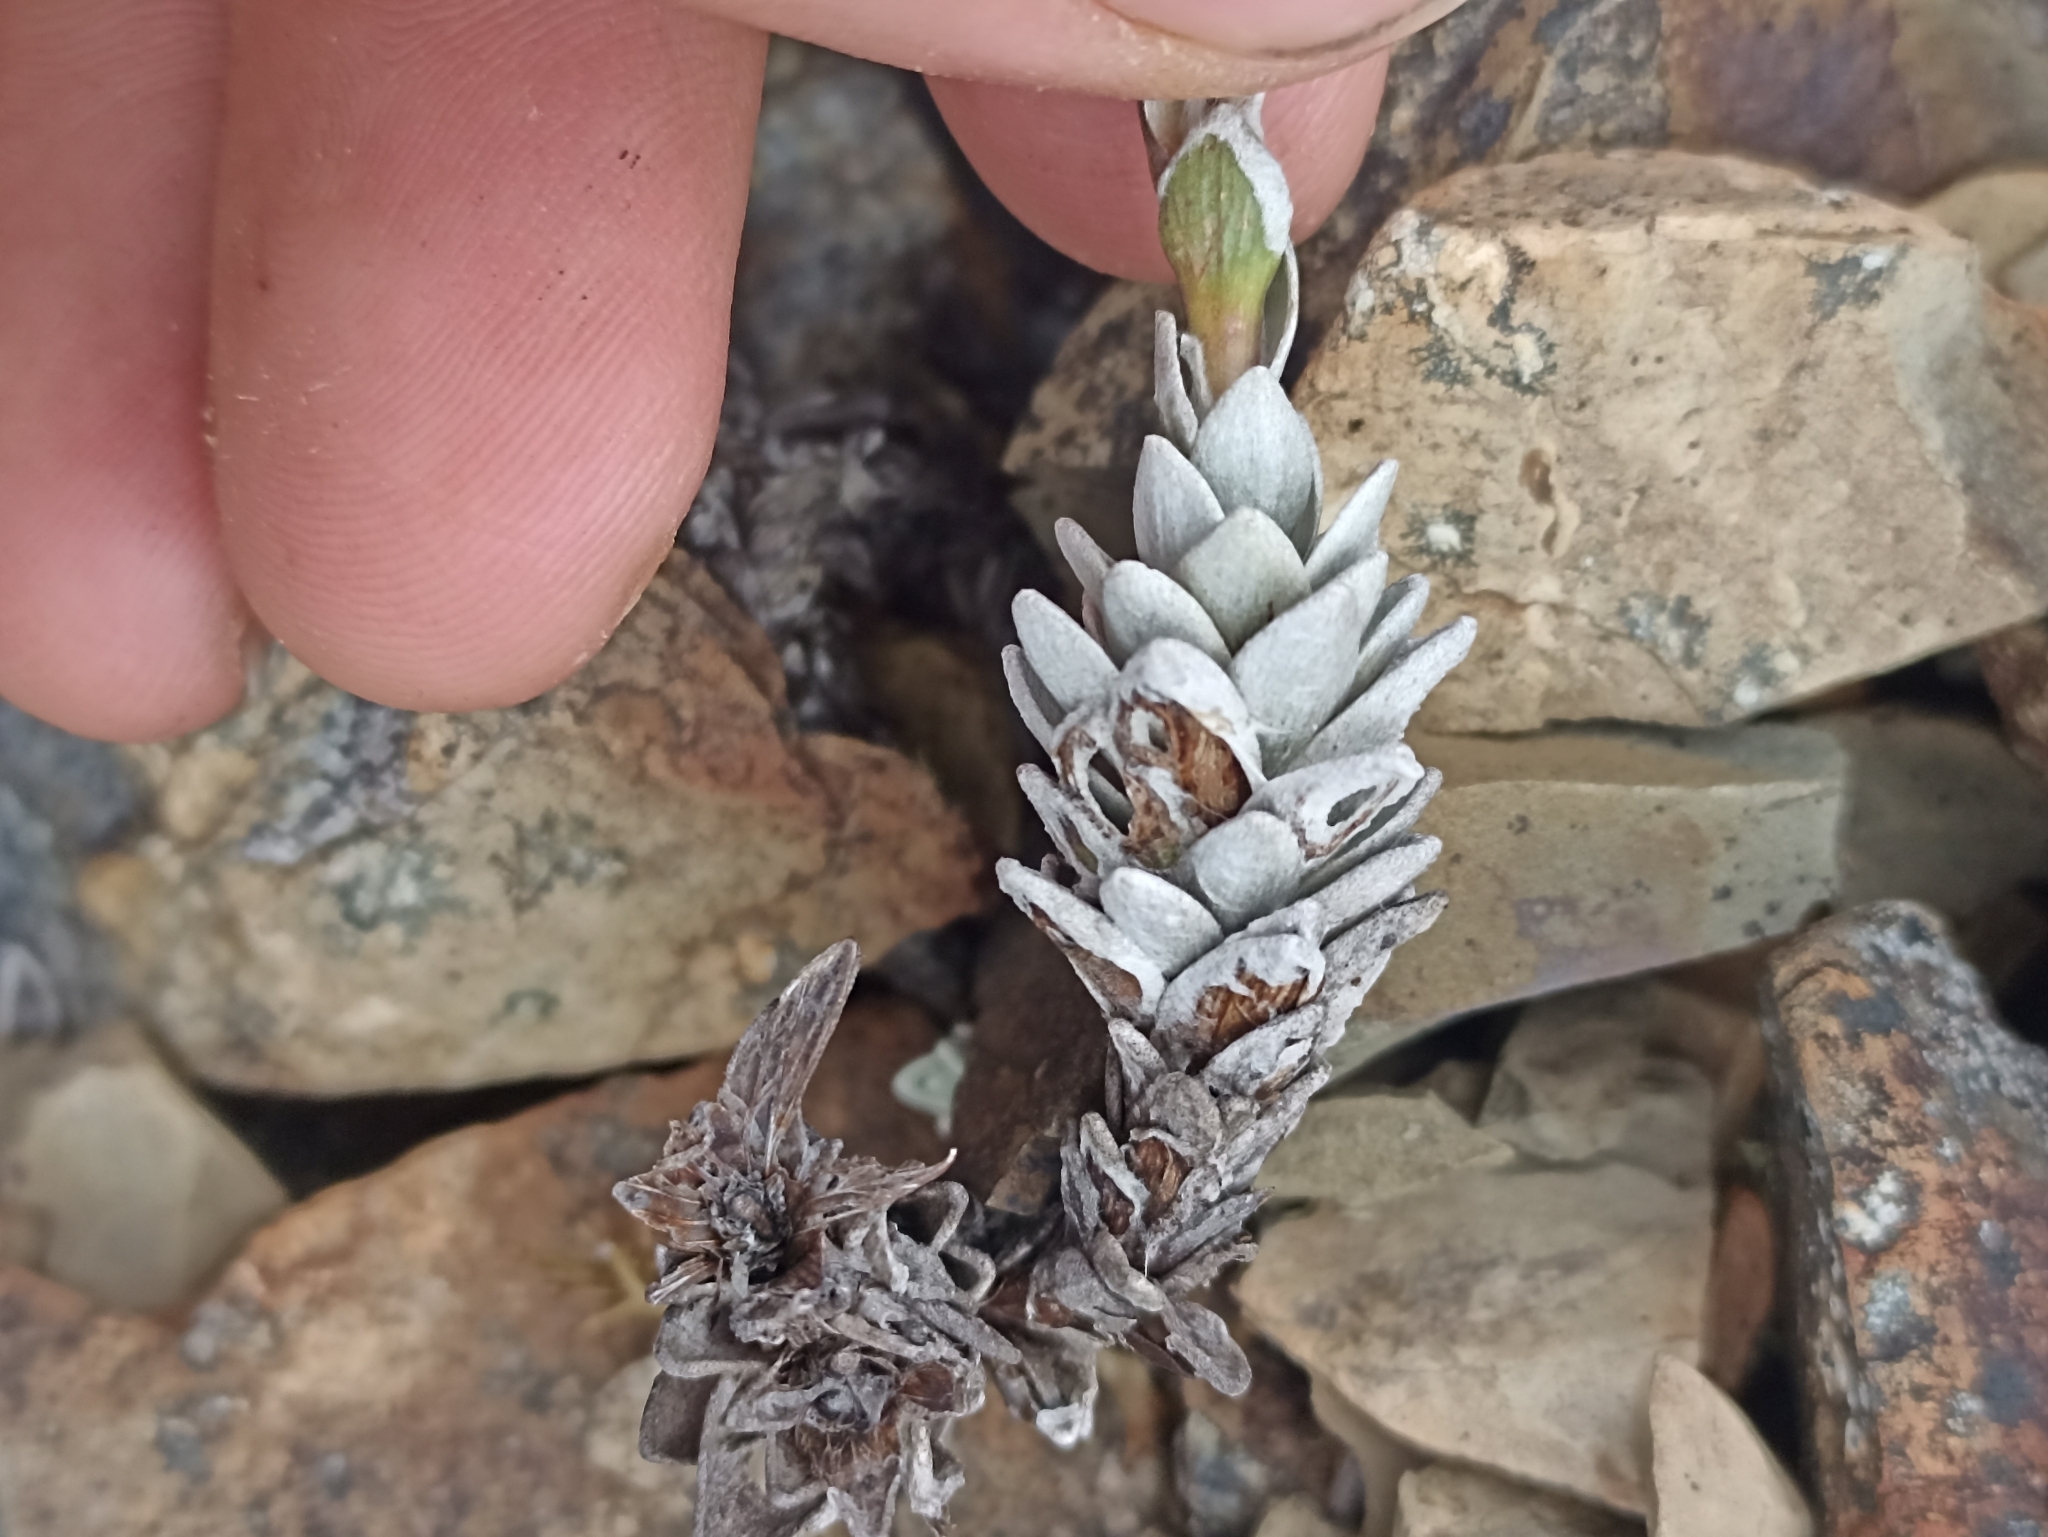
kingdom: Plantae
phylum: Tracheophyta
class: Magnoliopsida
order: Asterales
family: Asteraceae
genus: Leucogenes
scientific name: Leucogenes leontopodium
